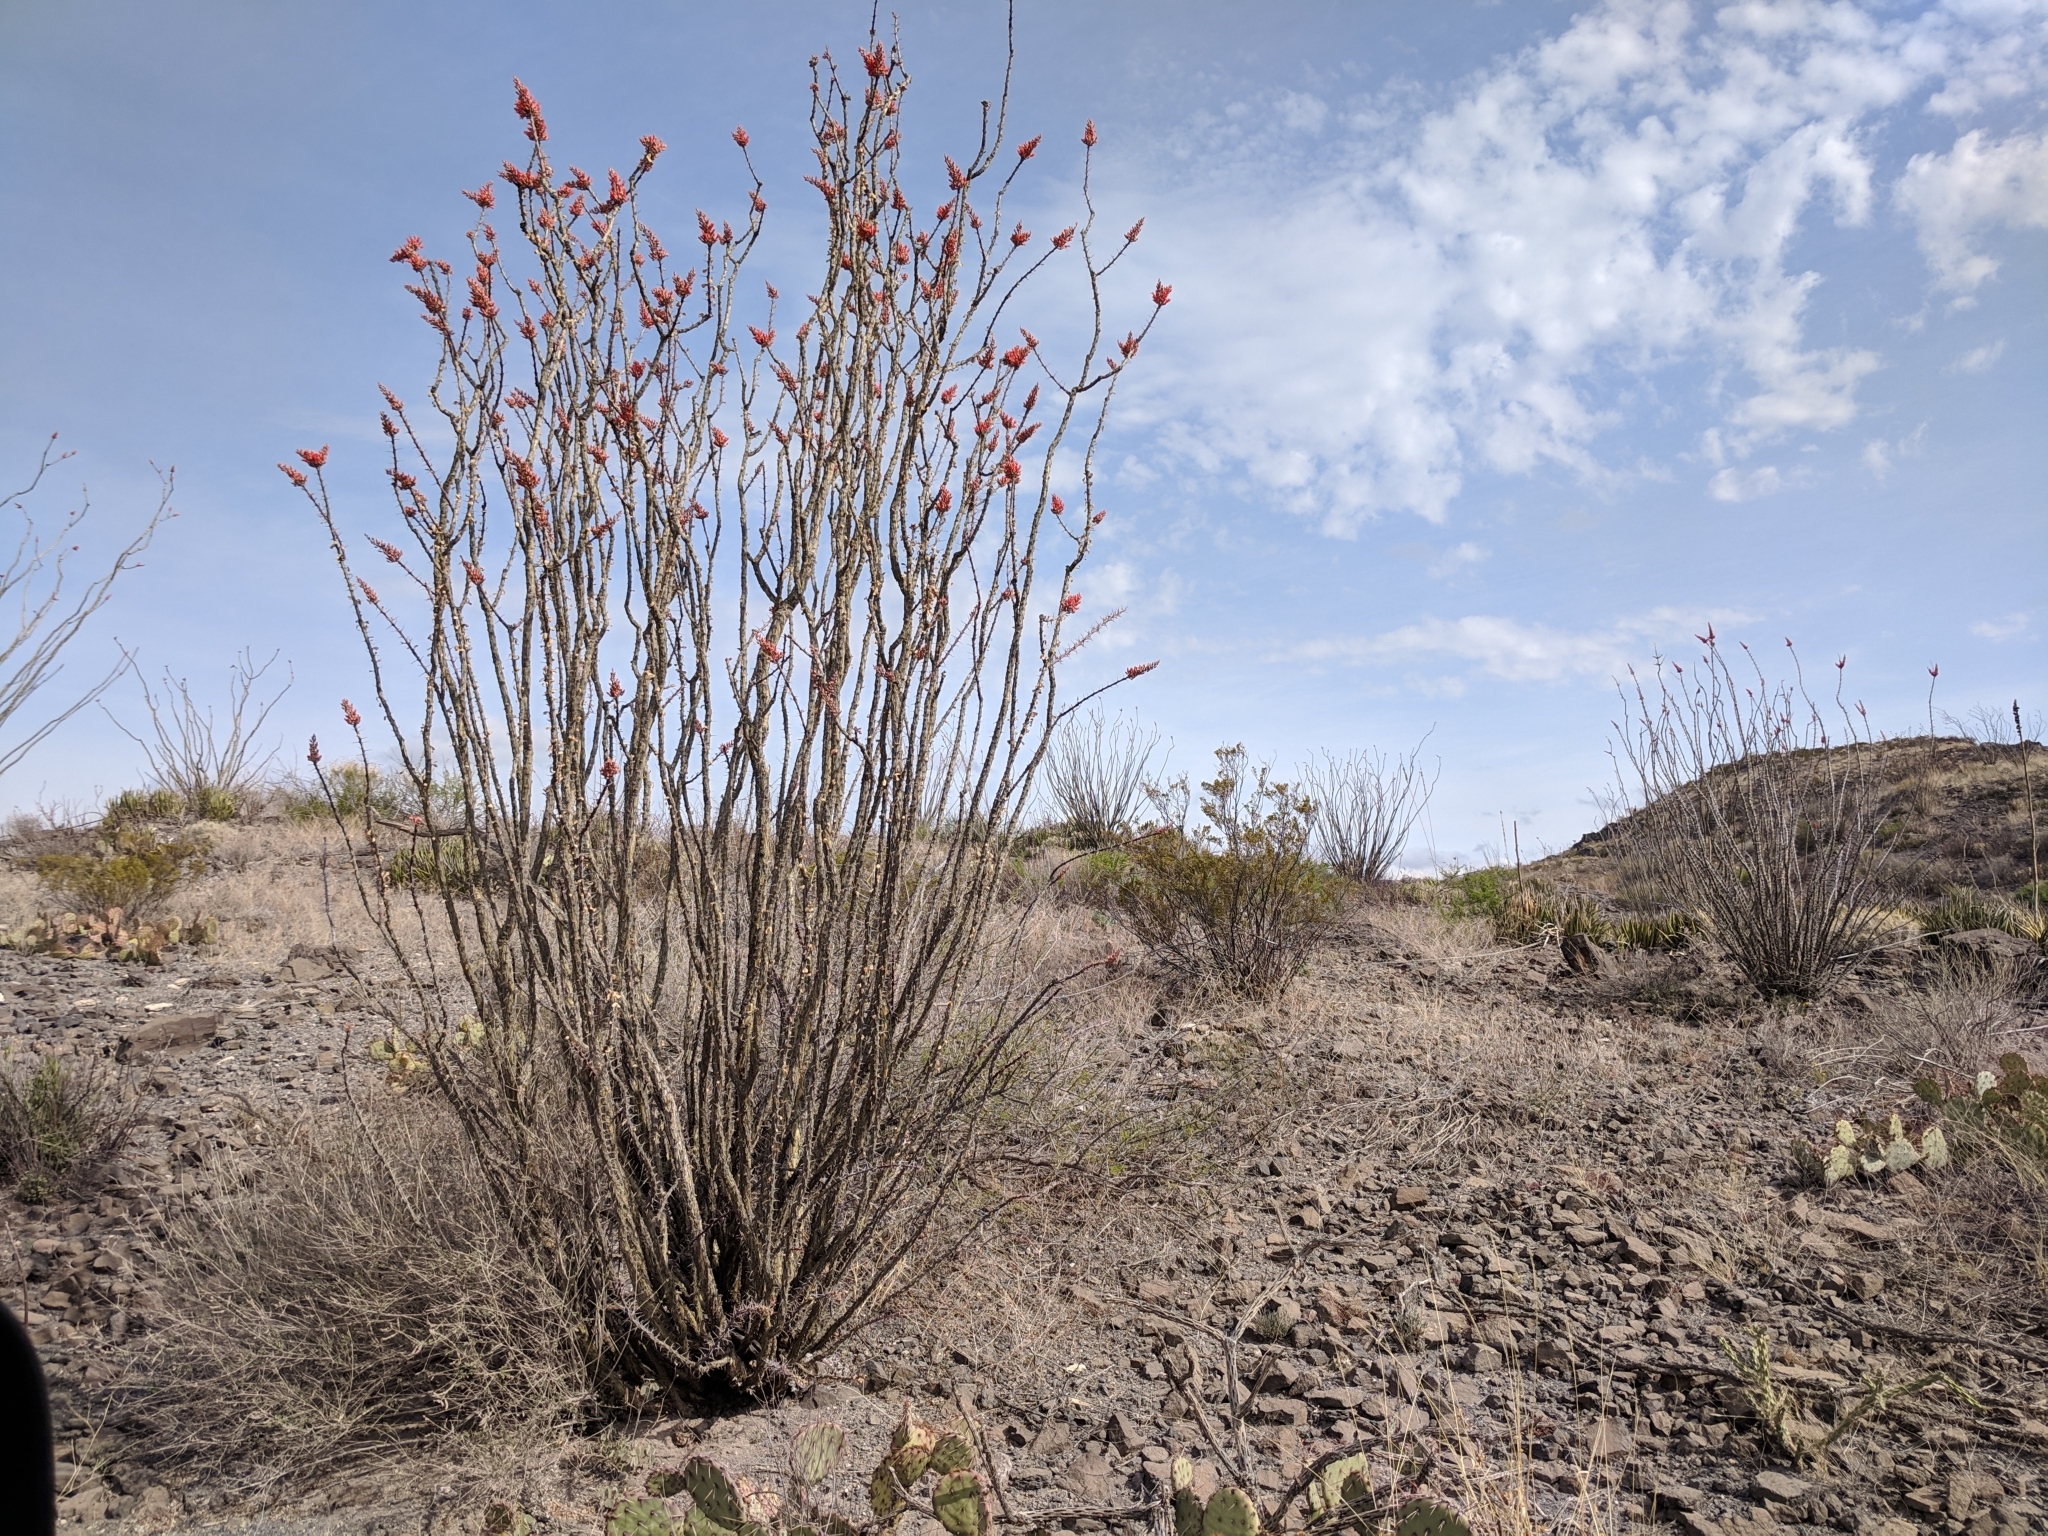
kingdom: Plantae
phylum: Tracheophyta
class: Magnoliopsida
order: Ericales
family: Fouquieriaceae
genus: Fouquieria
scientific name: Fouquieria splendens
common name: Vine-cactus
